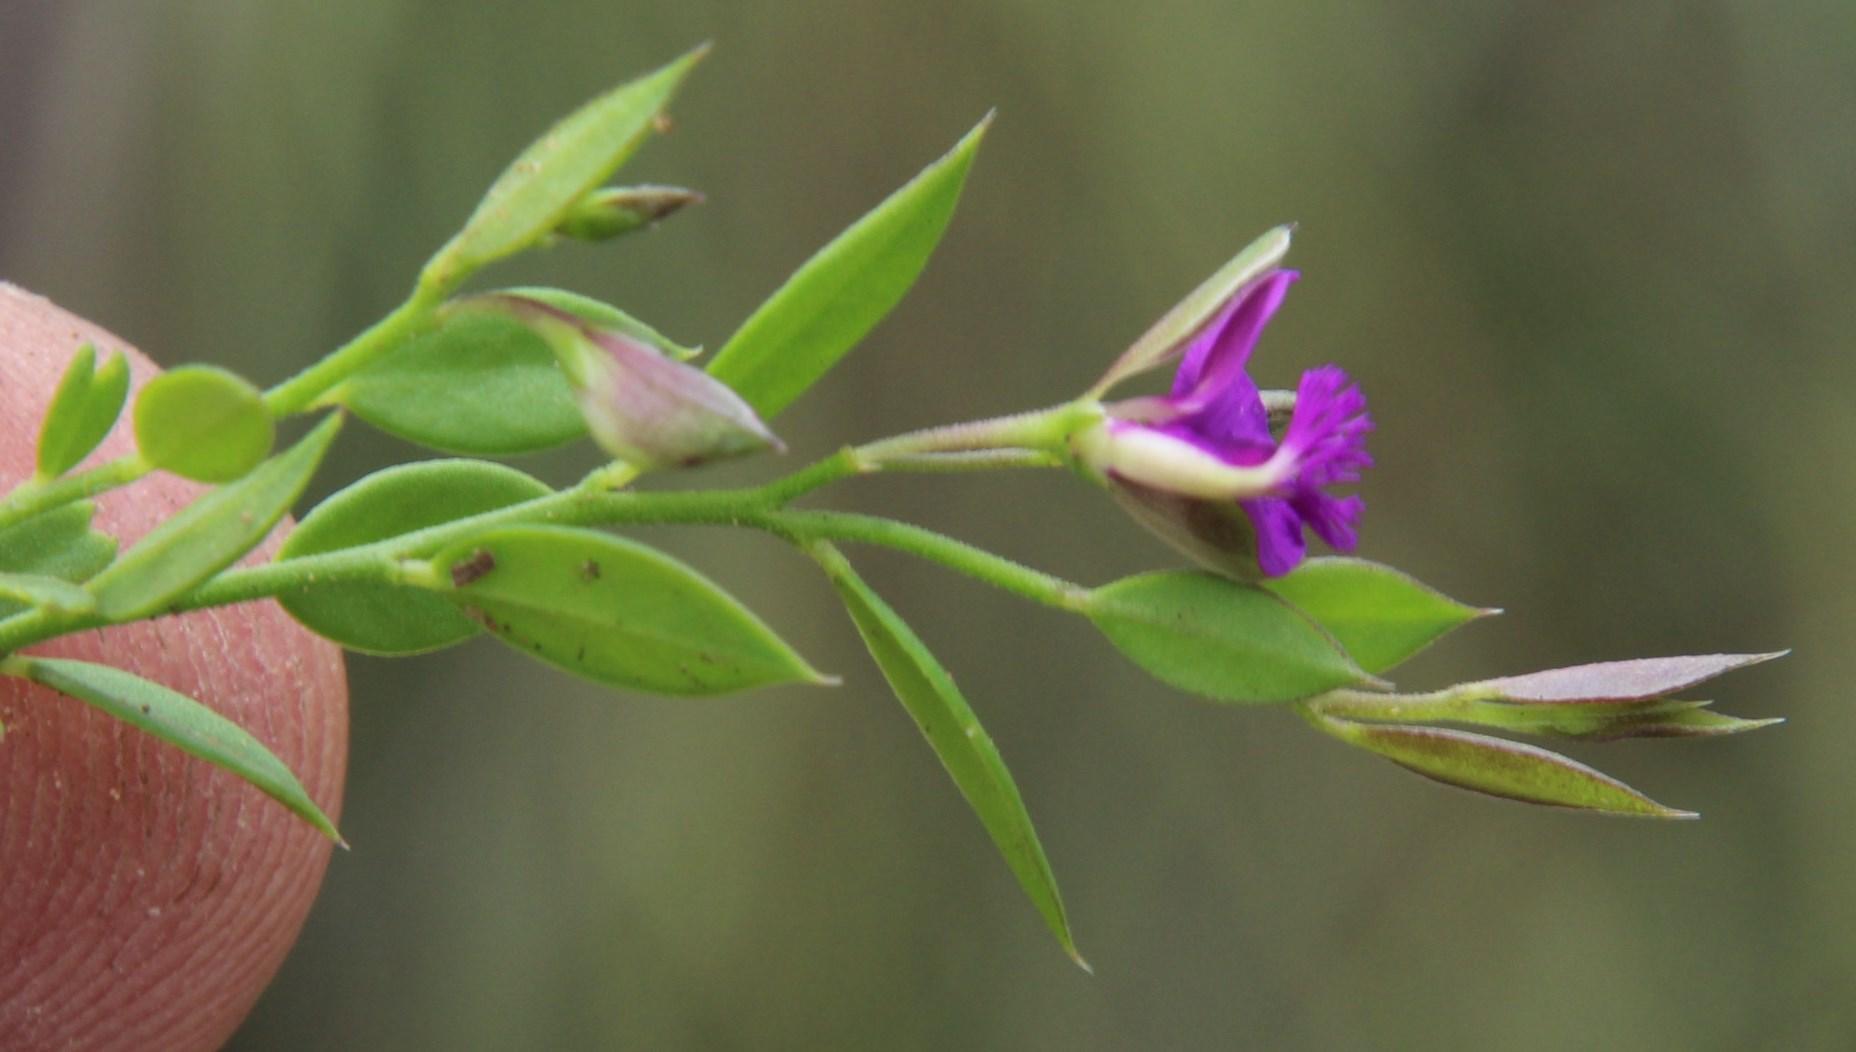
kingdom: Plantae
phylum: Tracheophyta
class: Magnoliopsida
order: Fabales
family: Polygalaceae
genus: Polygala
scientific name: Polygala amatymbica
